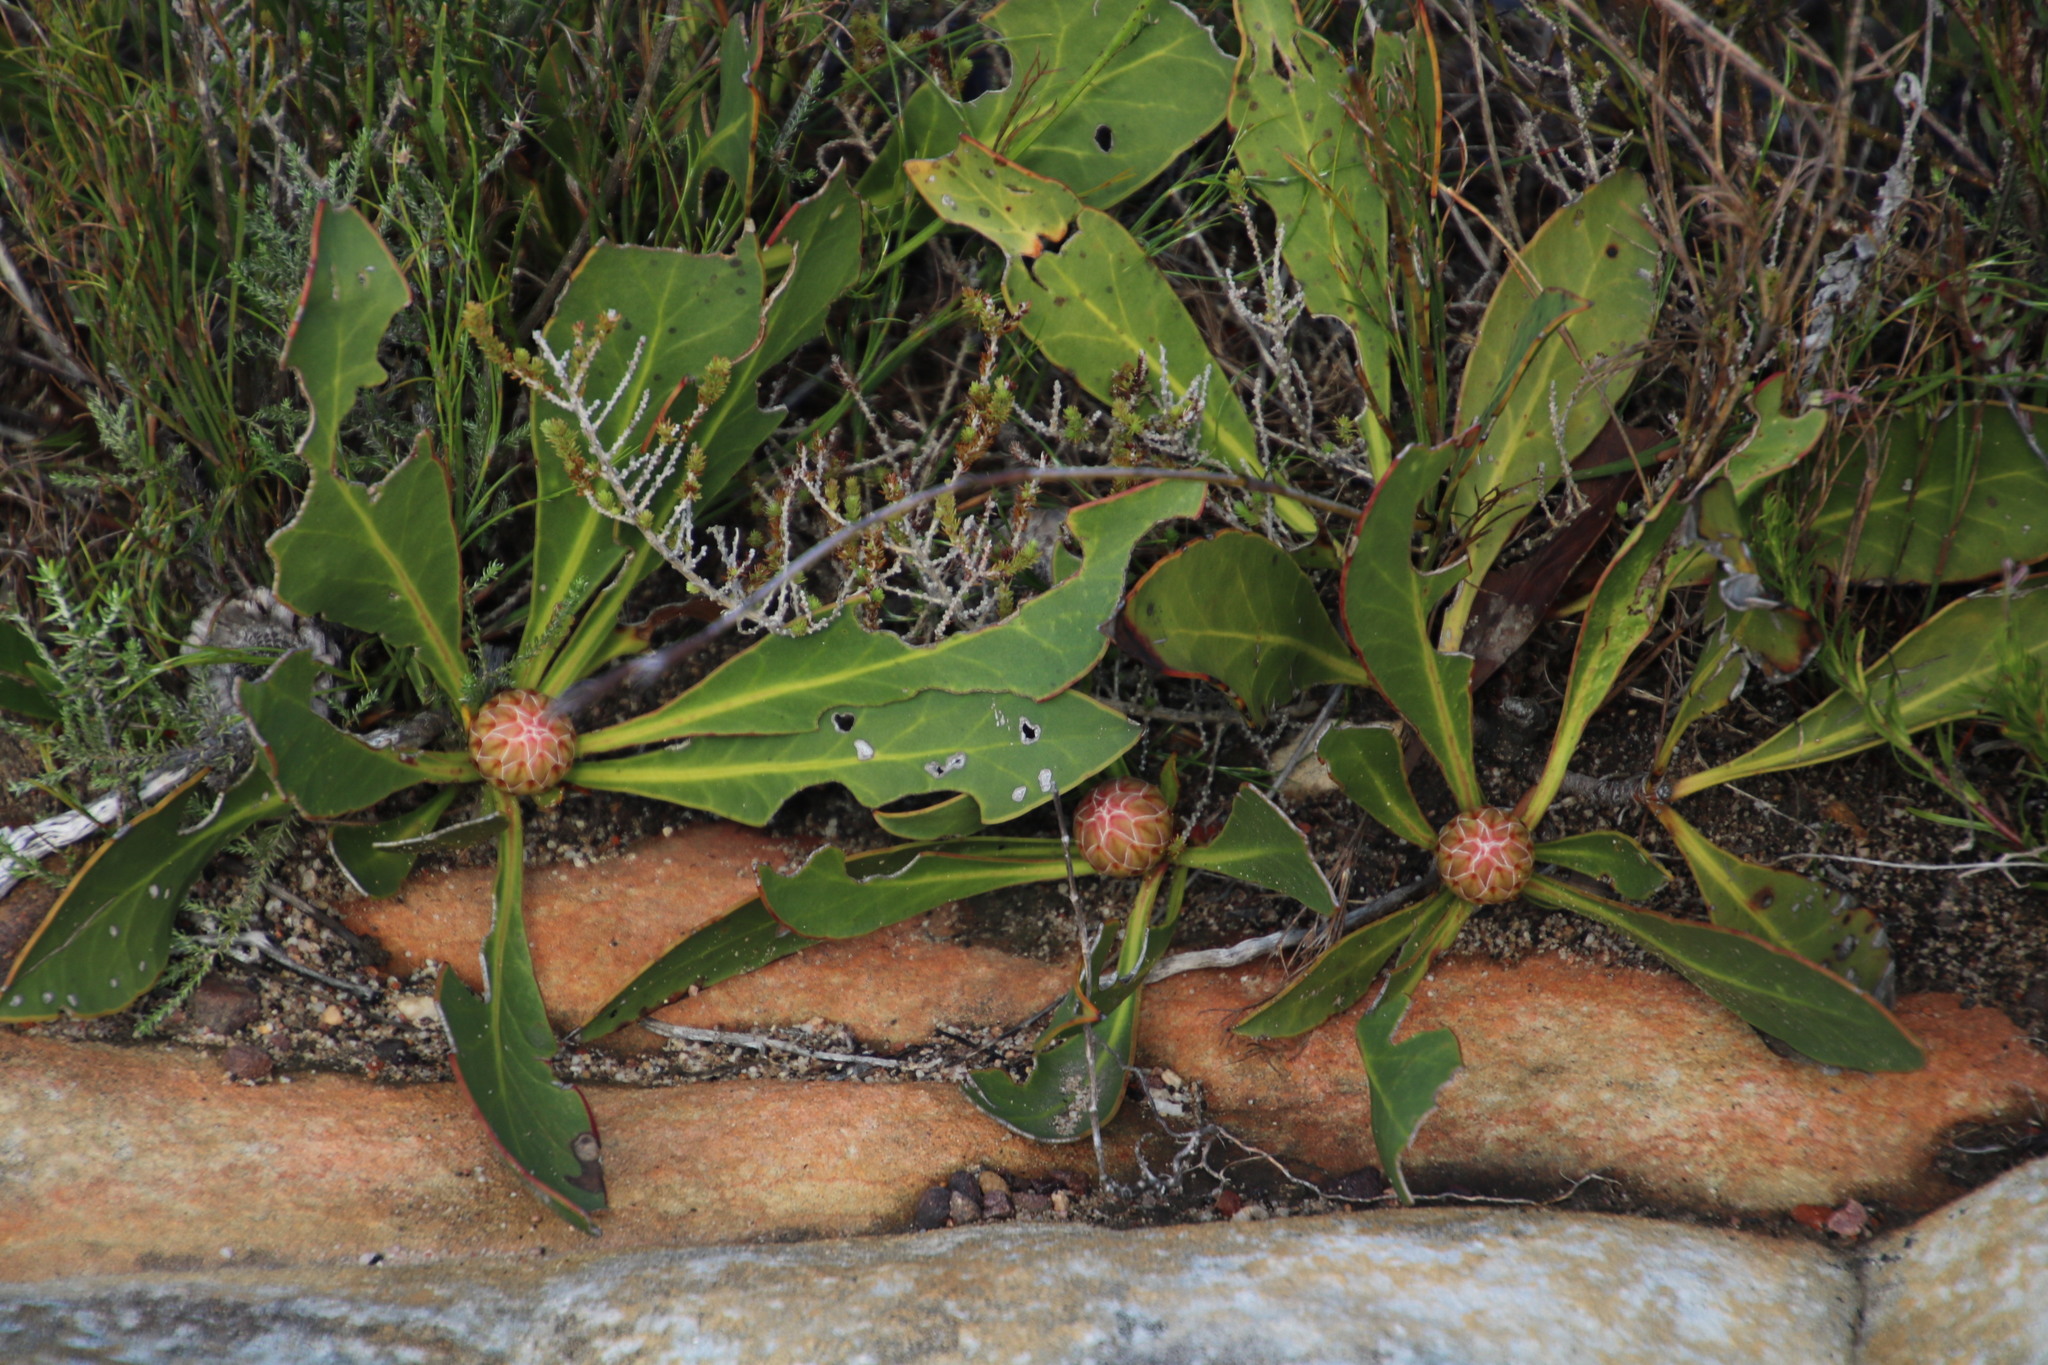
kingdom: Plantae
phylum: Tracheophyta
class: Magnoliopsida
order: Proteales
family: Proteaceae
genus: Protea
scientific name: Protea acaulos
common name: Common ground sugarbush
